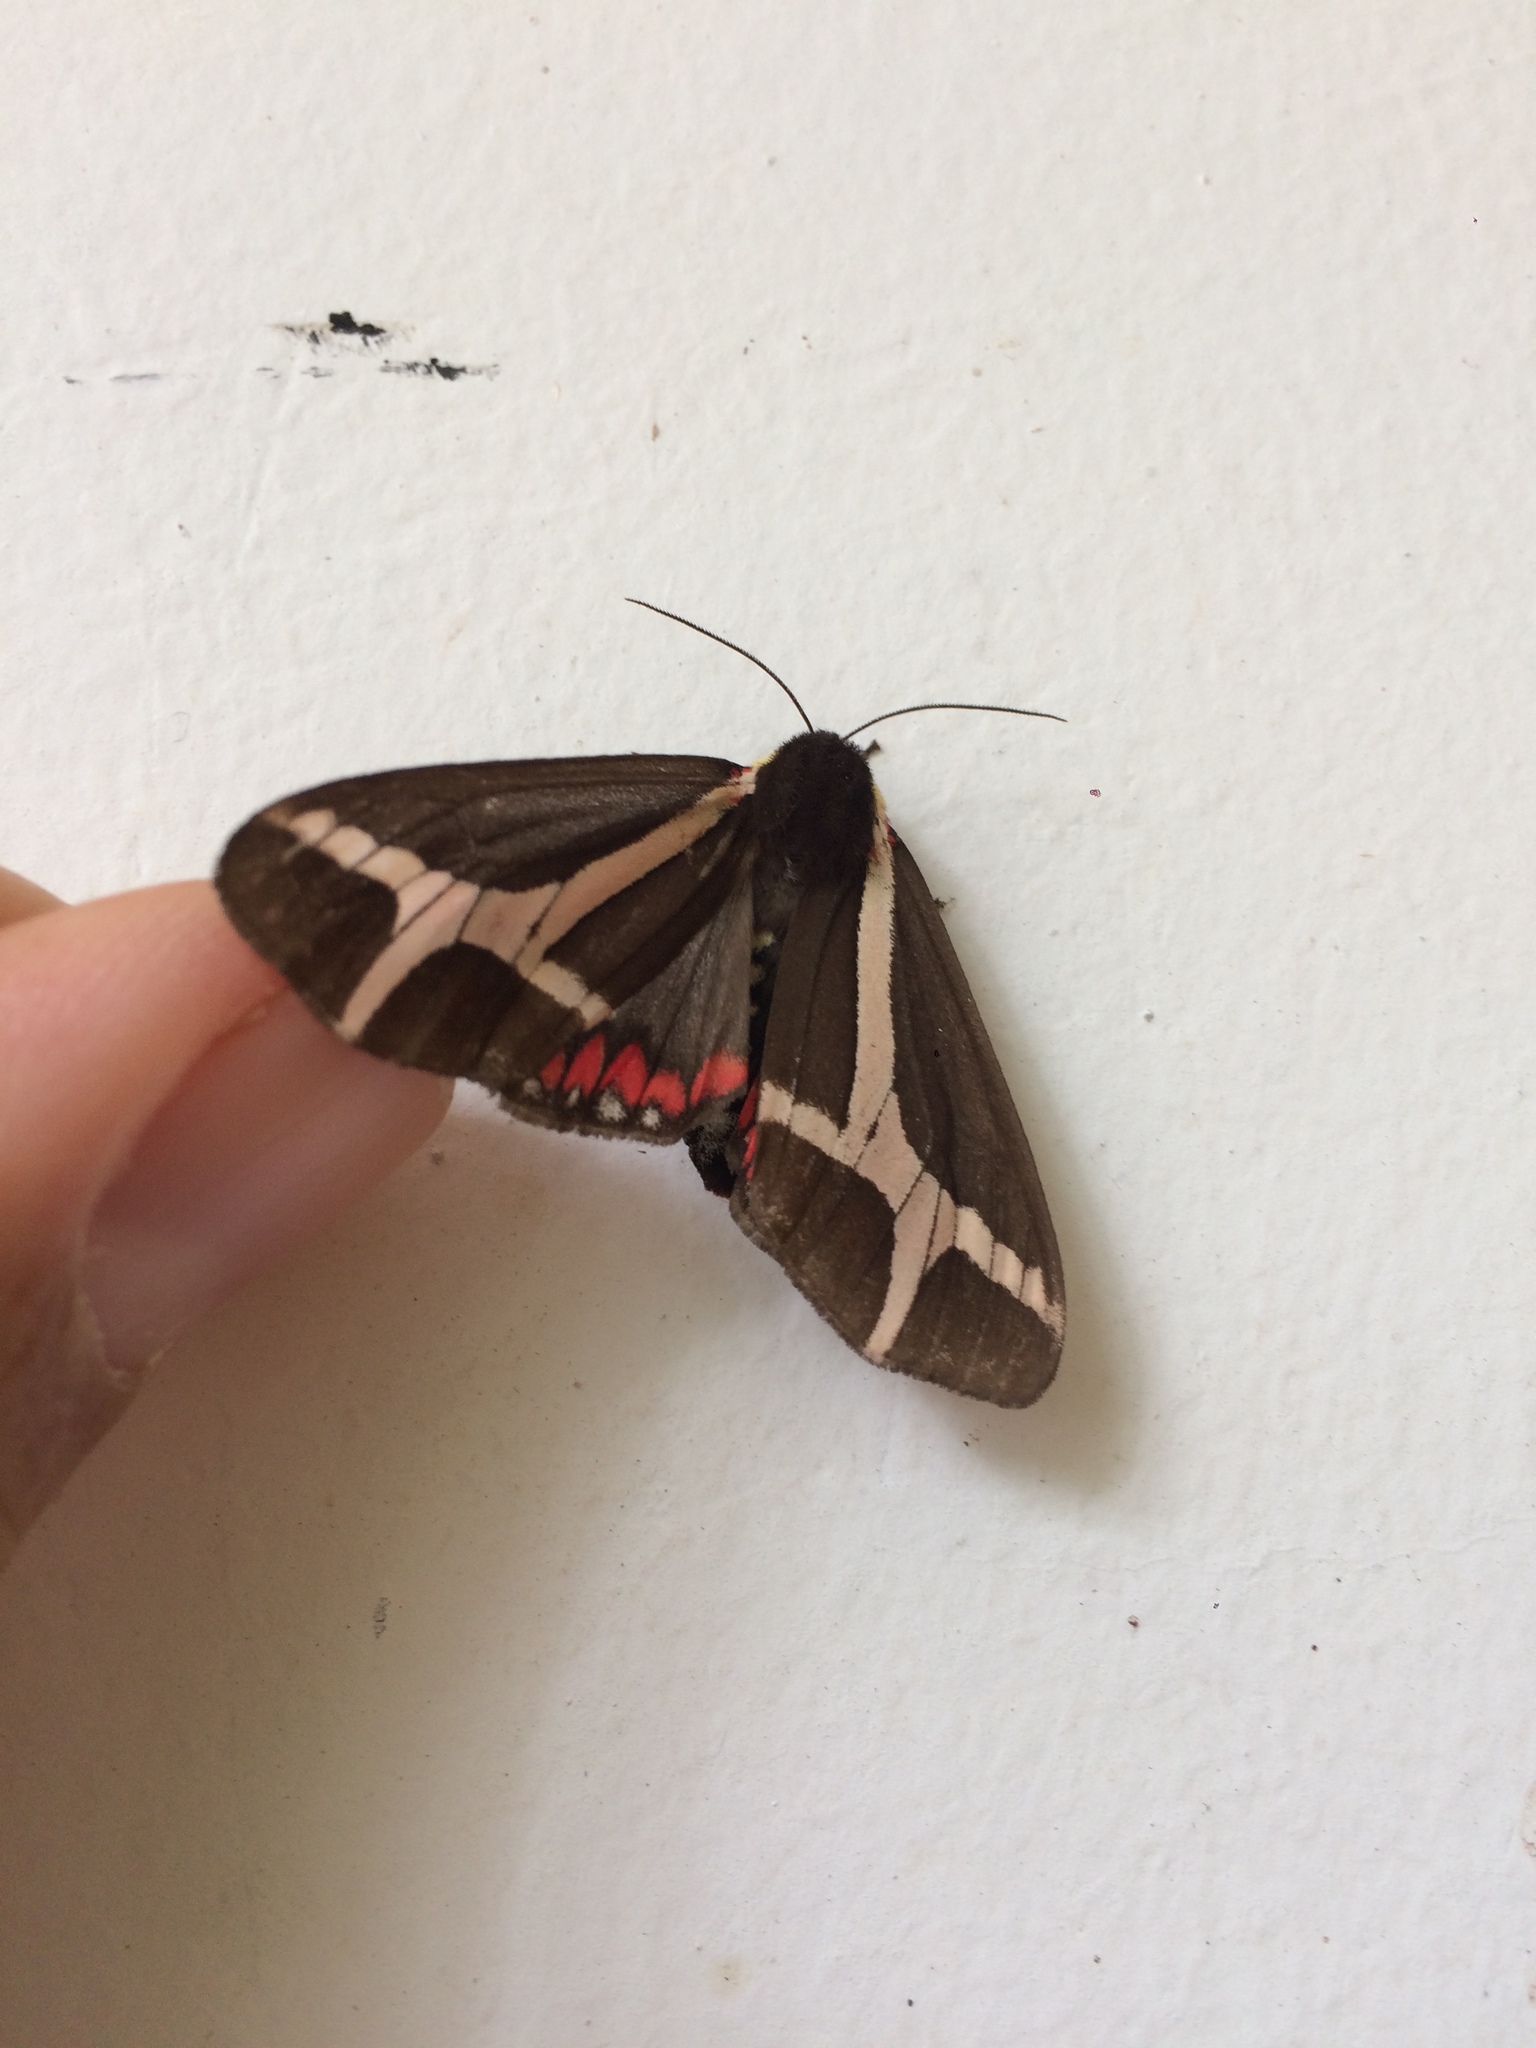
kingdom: Animalia
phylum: Arthropoda
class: Insecta
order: Lepidoptera
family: Erebidae
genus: Dysschema
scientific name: Dysschema sacrifica
